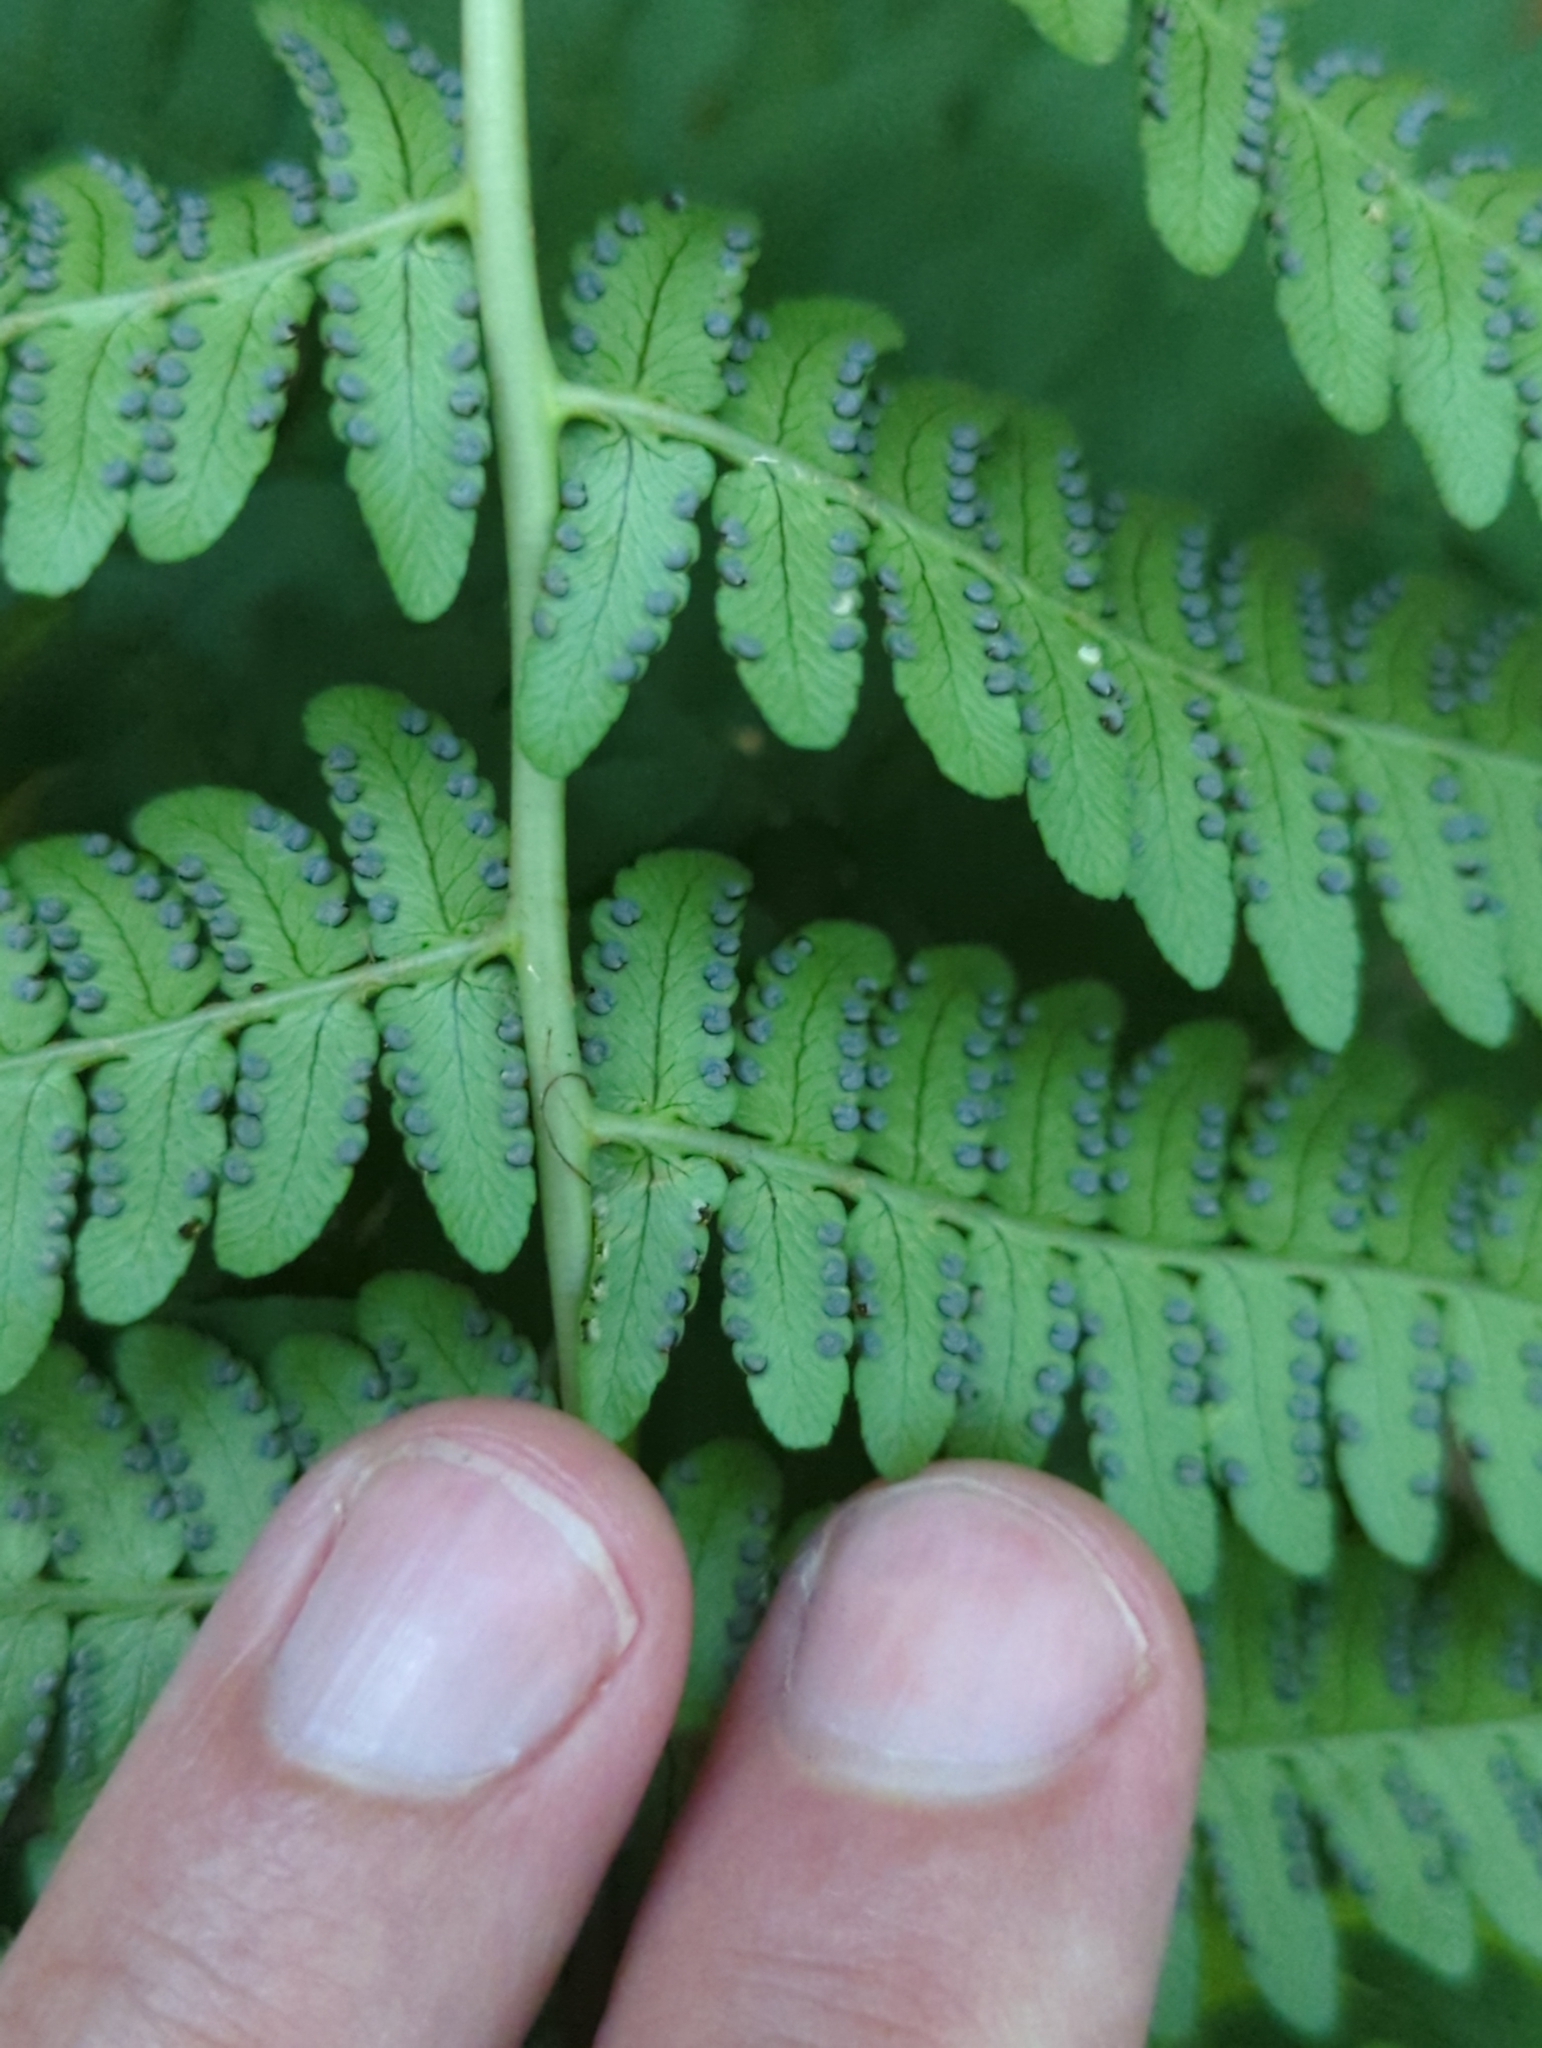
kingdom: Plantae
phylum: Tracheophyta
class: Polypodiopsida
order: Polypodiales
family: Dryopteridaceae
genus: Dryopteris
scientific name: Dryopteris marginalis
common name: Marginal wood fern
